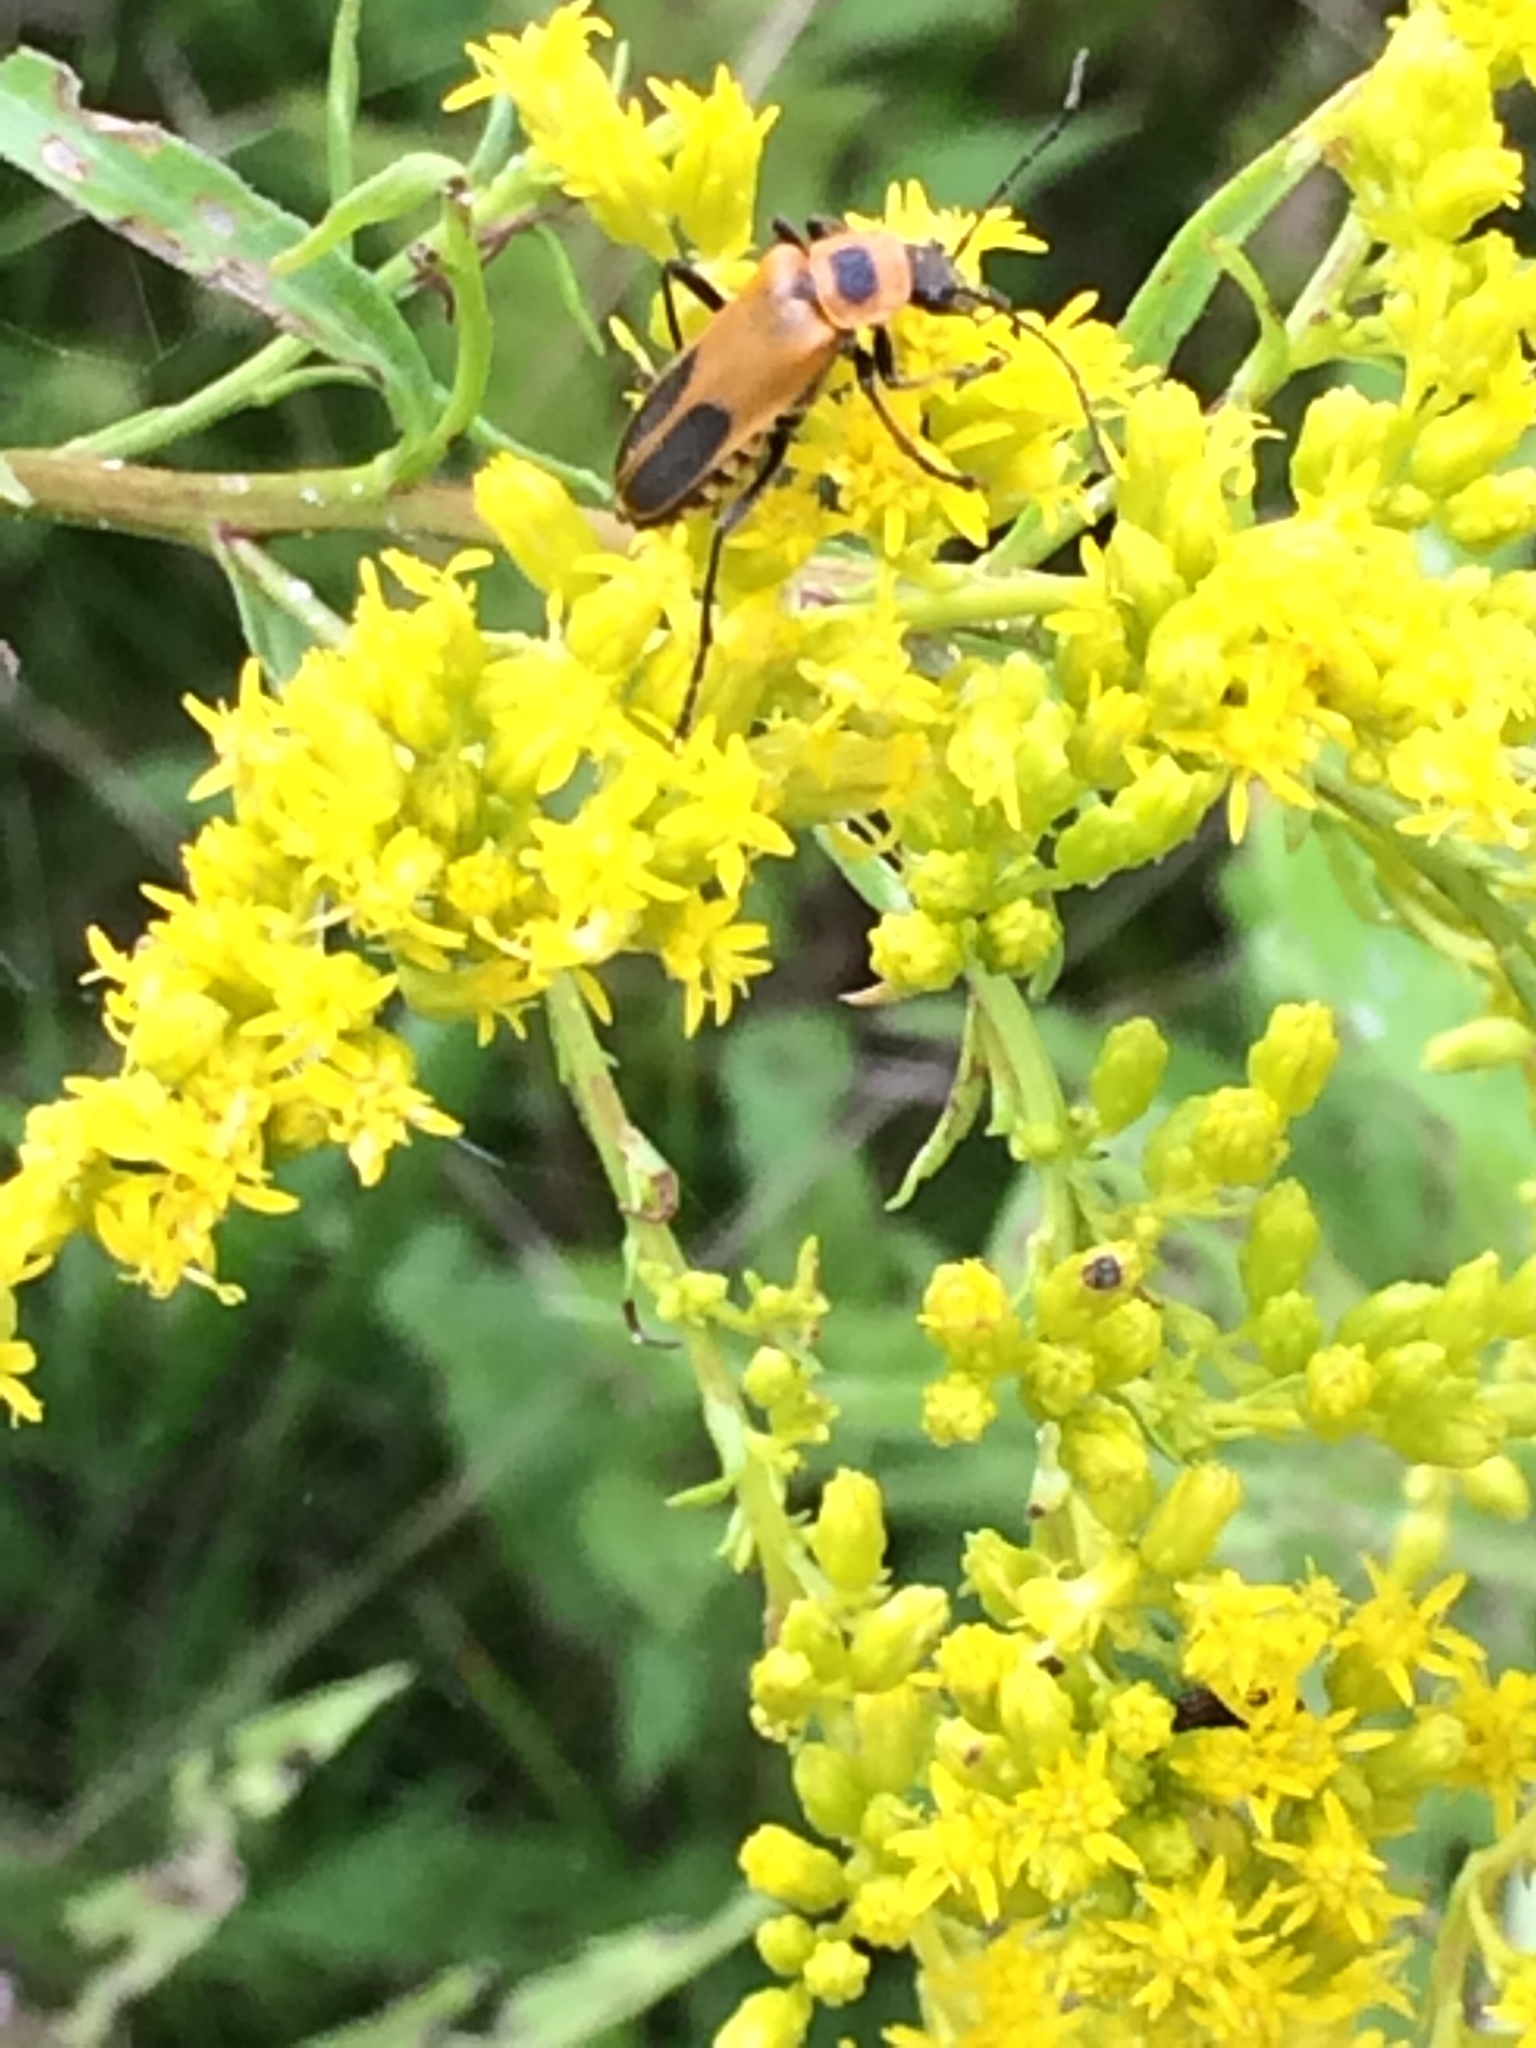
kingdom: Animalia
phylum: Arthropoda
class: Insecta
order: Coleoptera
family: Cantharidae
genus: Chauliognathus
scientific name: Chauliognathus pensylvanicus
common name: Goldenrod soldier beetle
